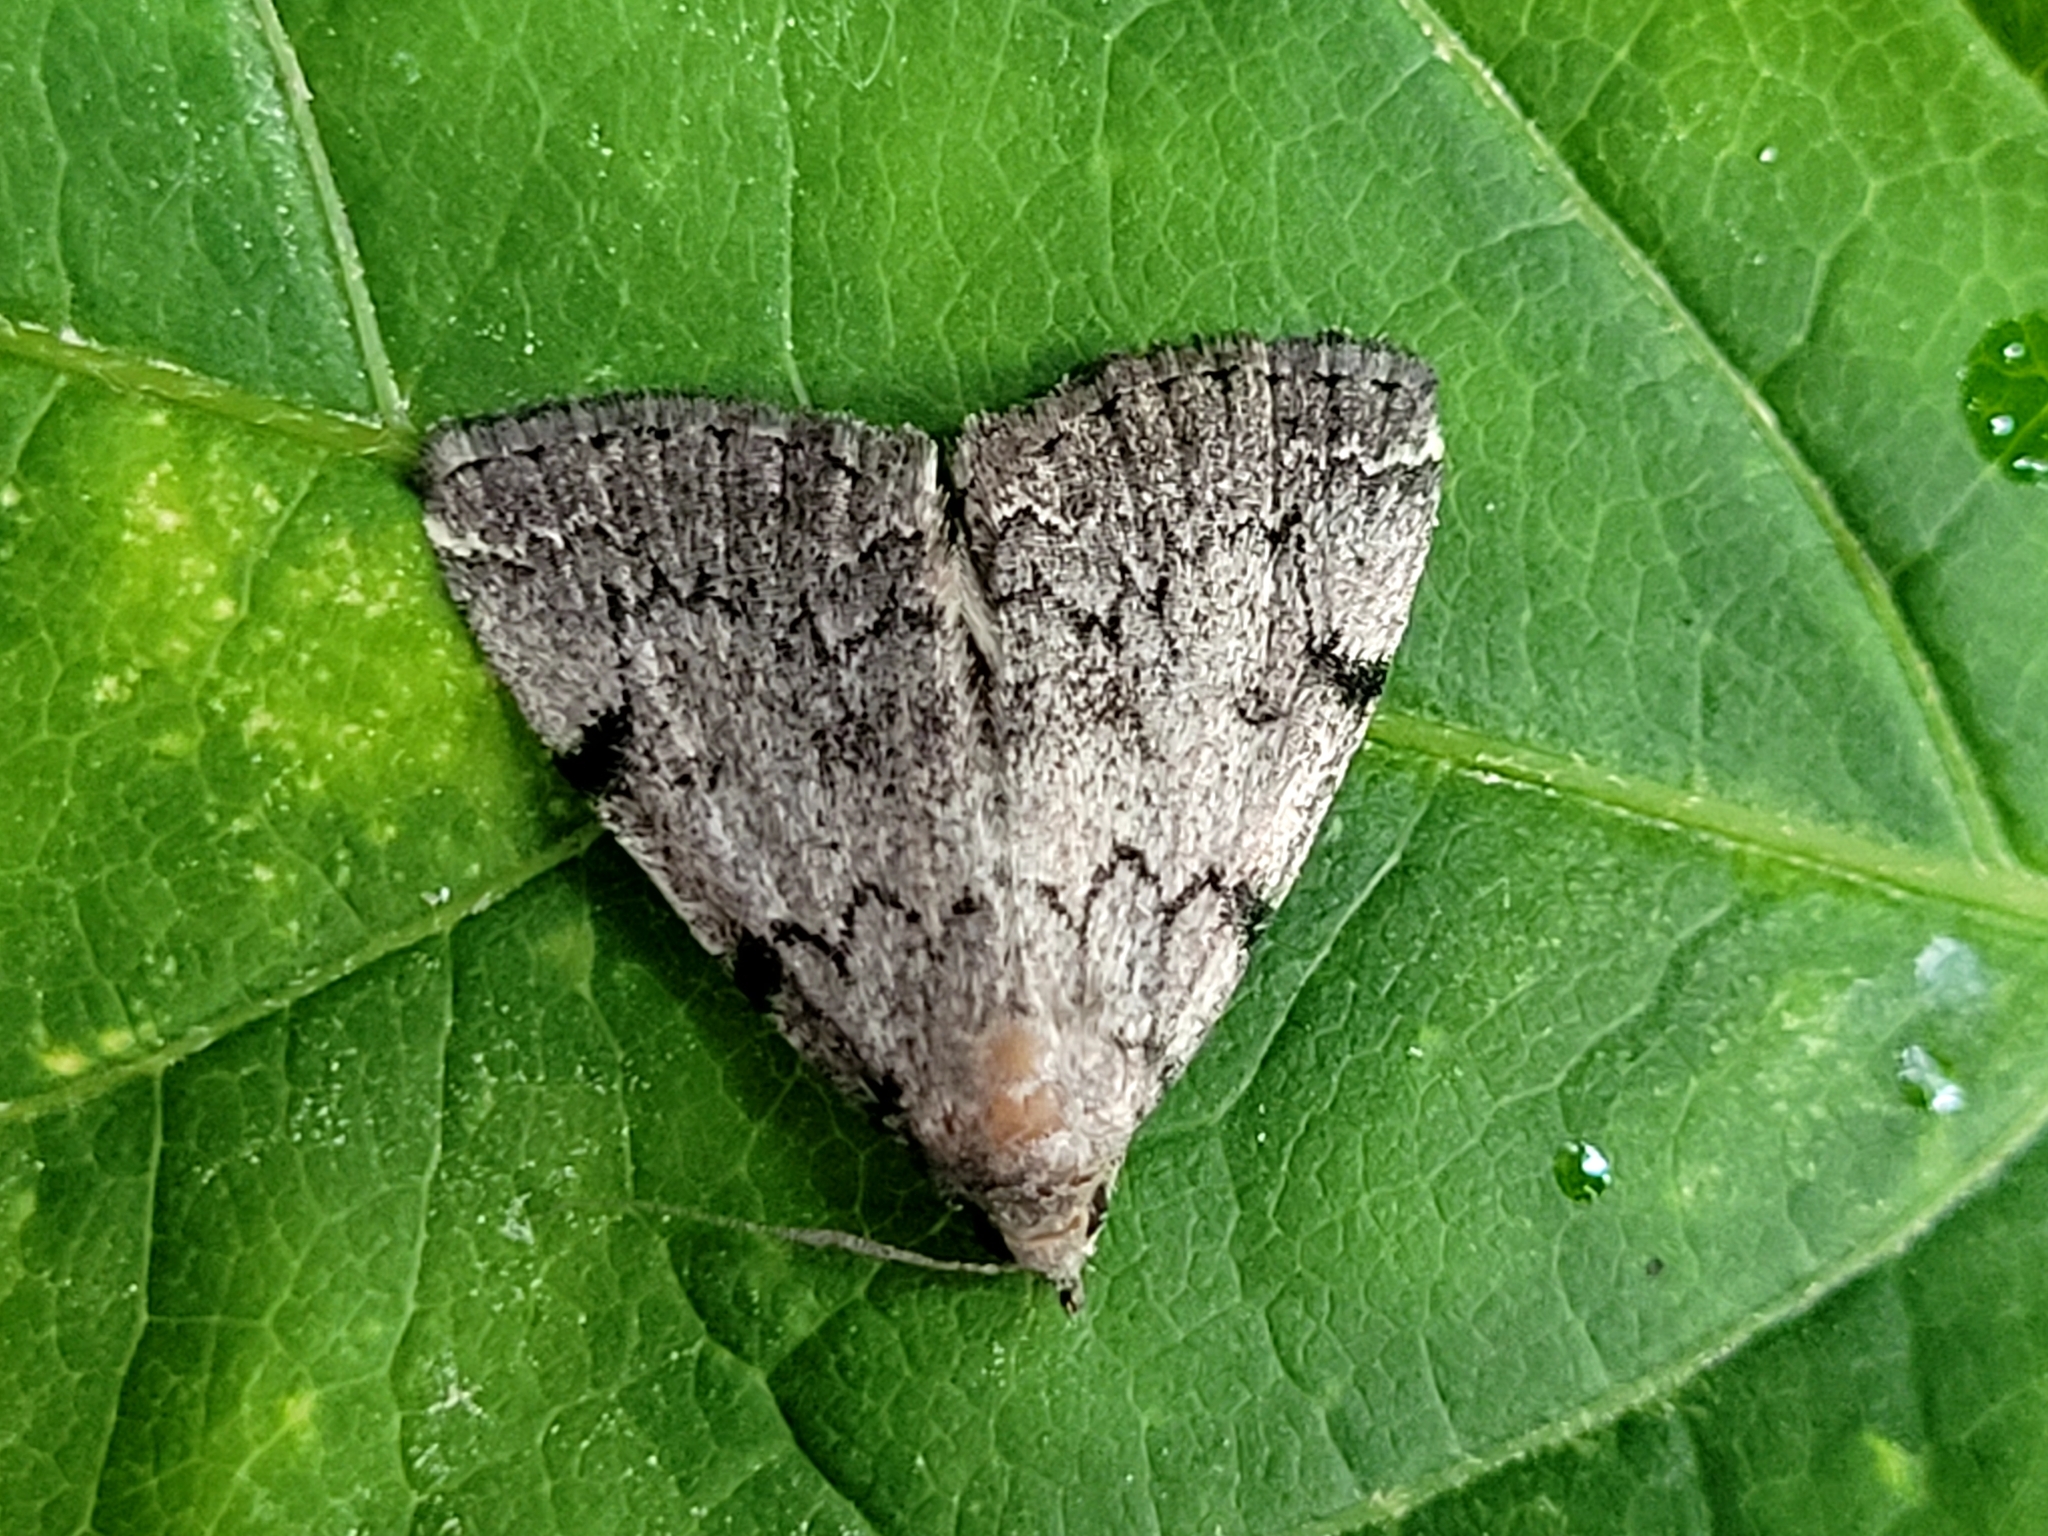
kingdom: Animalia
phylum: Arthropoda
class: Insecta
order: Lepidoptera
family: Erebidae
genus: Zanclognatha
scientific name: Zanclognatha theralis
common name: Flagged fan-foot
